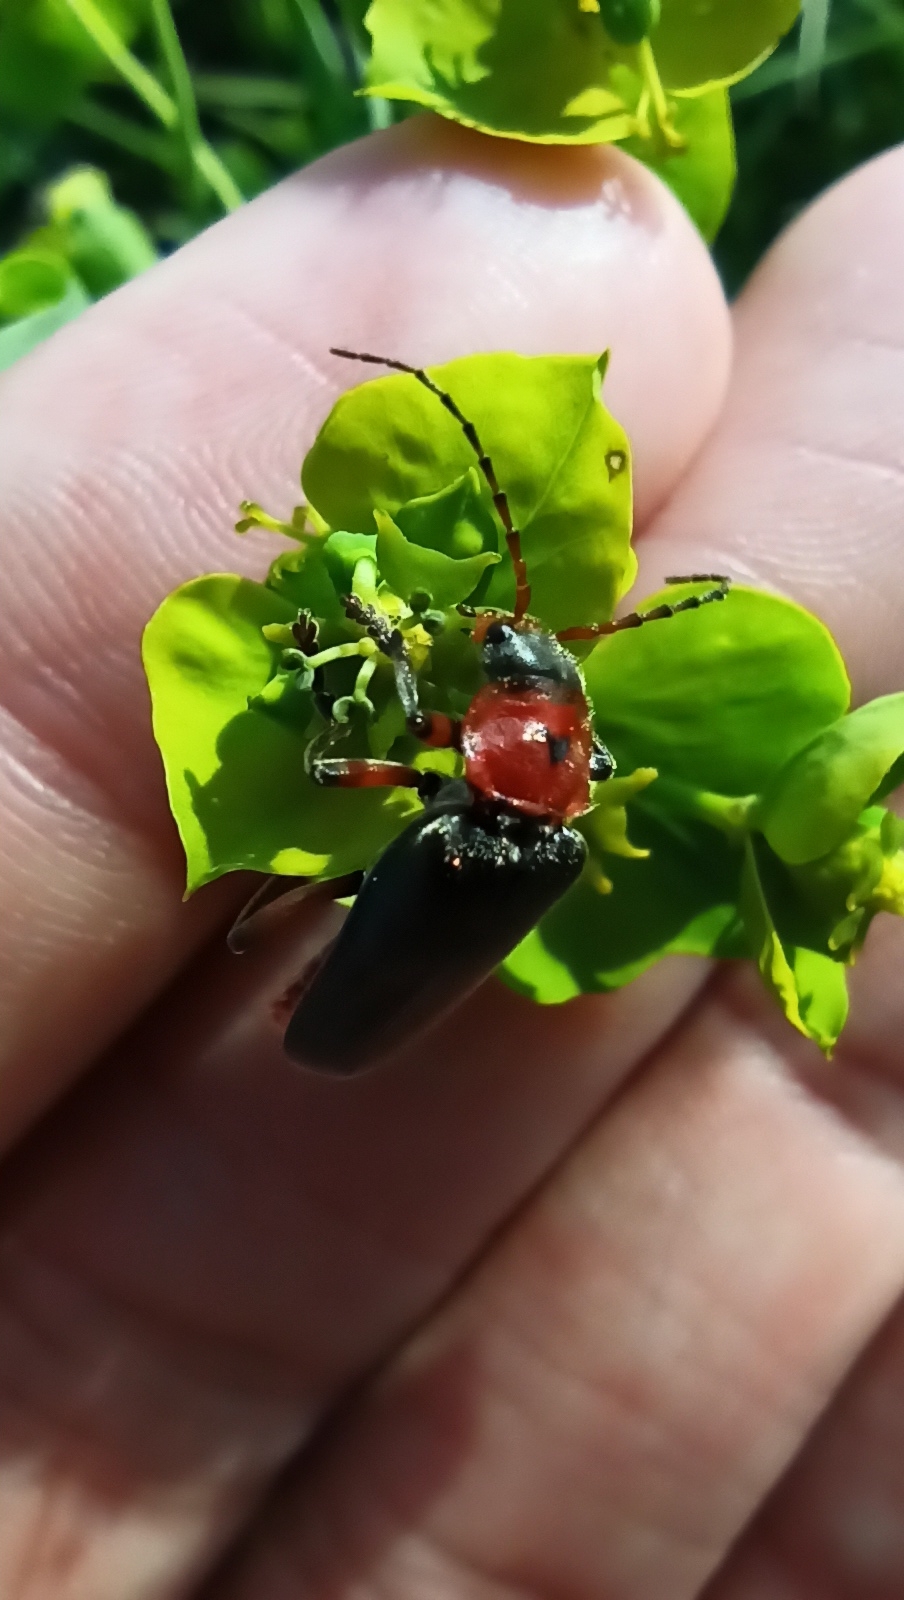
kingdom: Animalia
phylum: Arthropoda
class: Insecta
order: Coleoptera
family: Cantharidae
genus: Cantharis
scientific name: Cantharis rustica
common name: Soldier beetle
